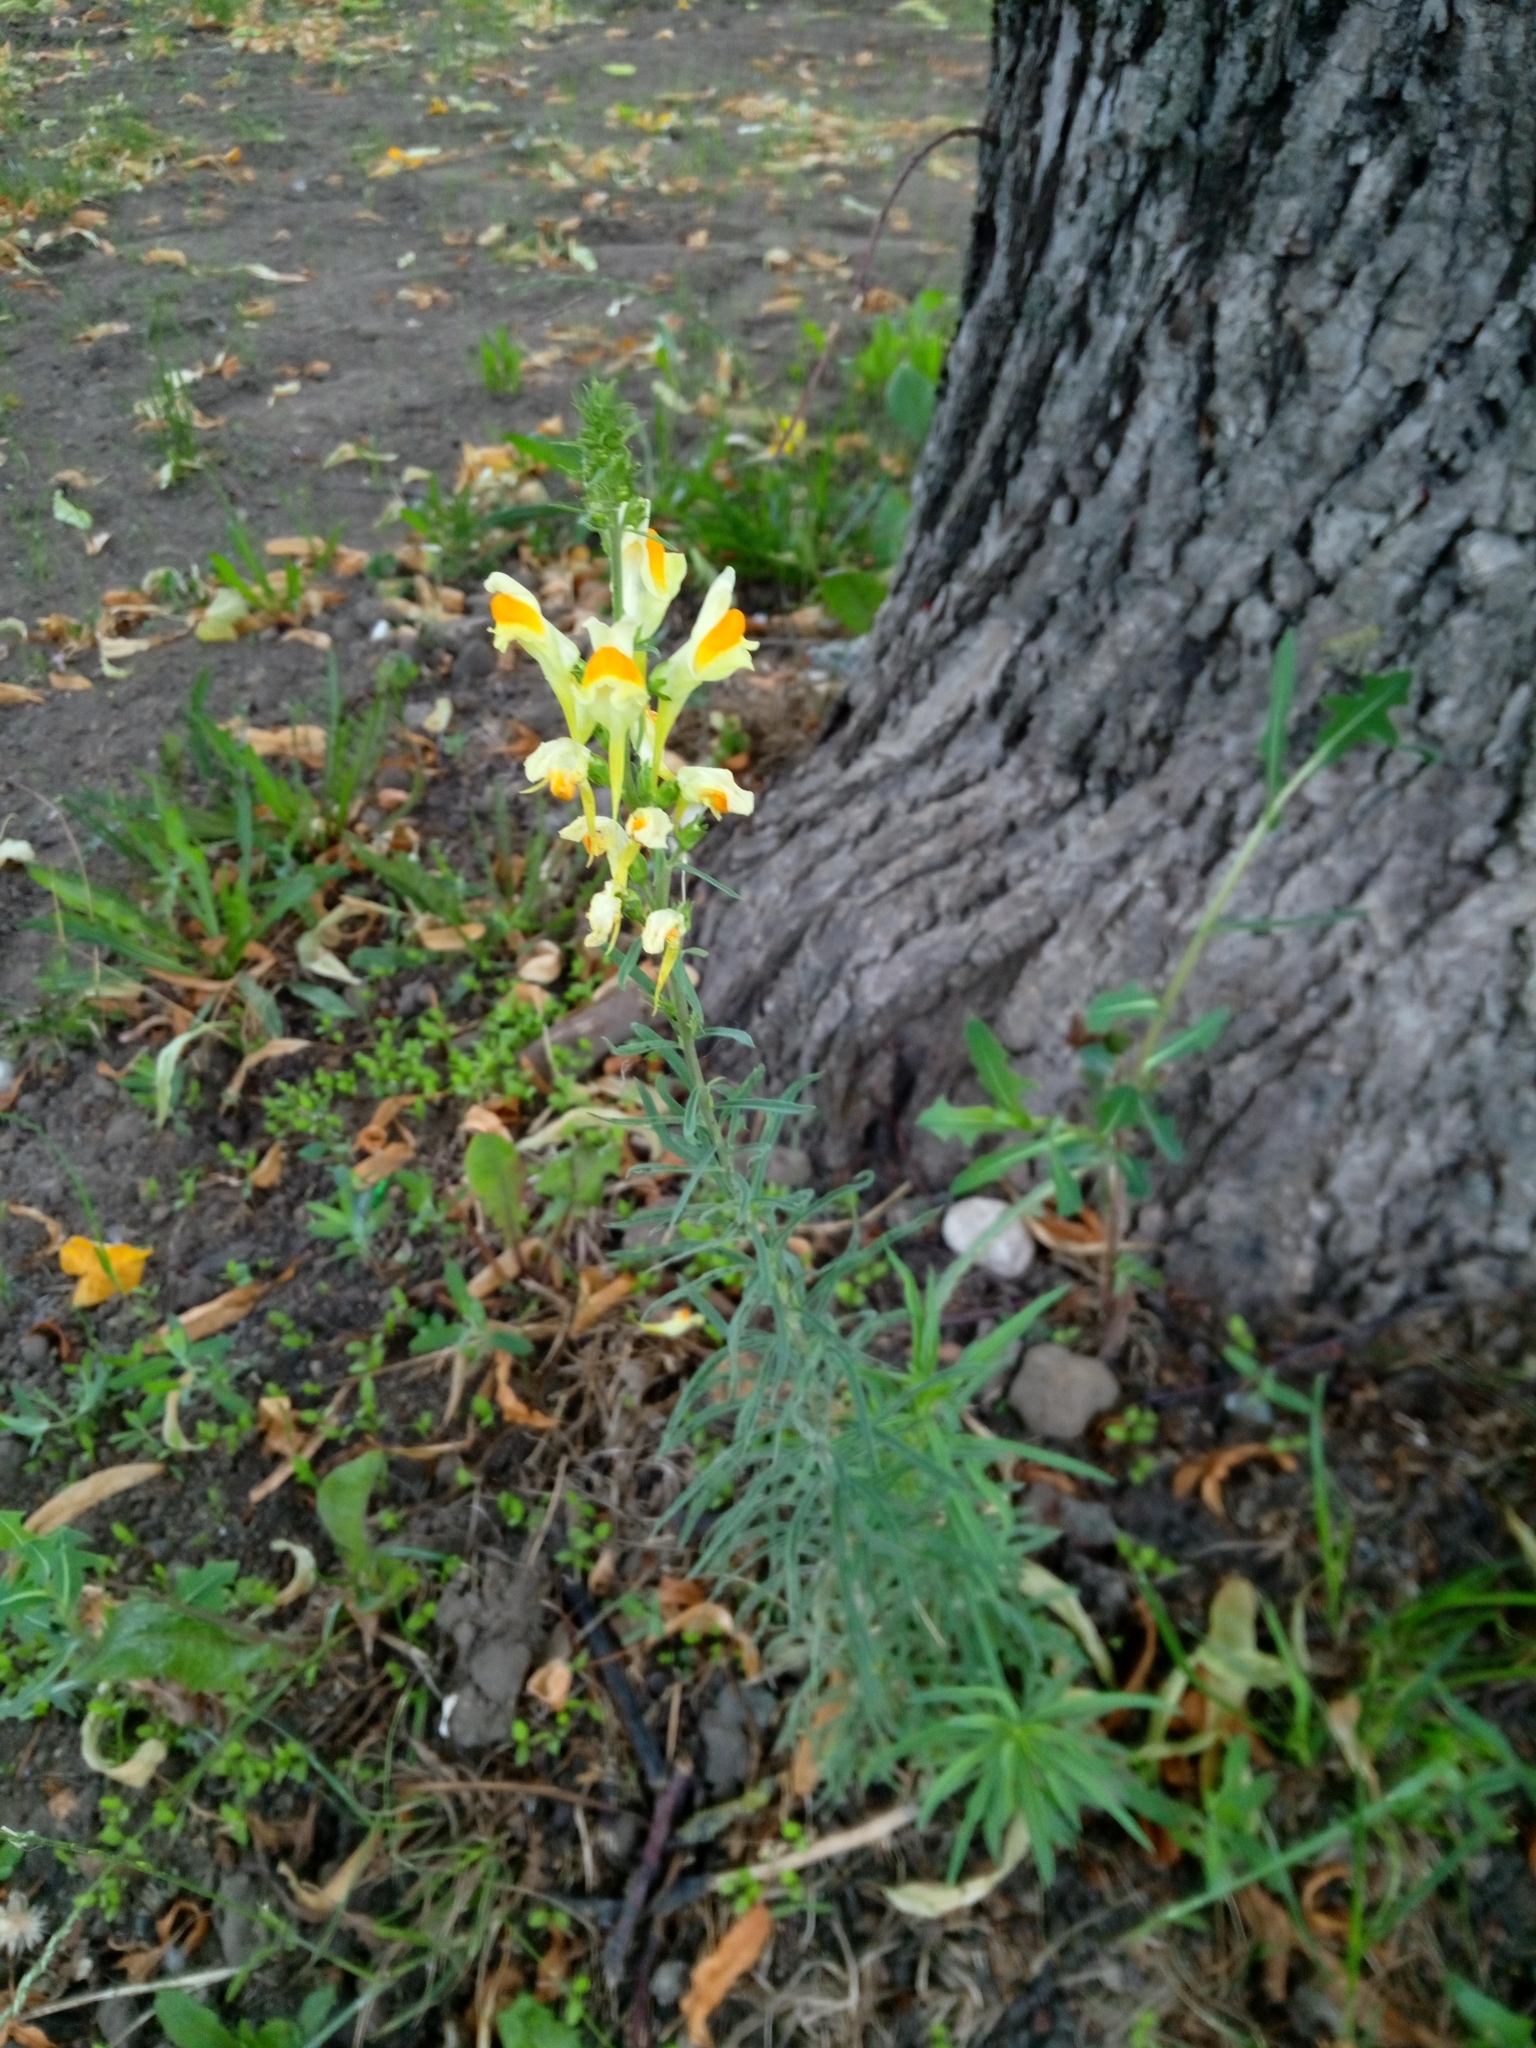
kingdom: Plantae
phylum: Tracheophyta
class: Magnoliopsida
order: Lamiales
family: Plantaginaceae
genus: Linaria
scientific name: Linaria vulgaris
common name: Butter and eggs
